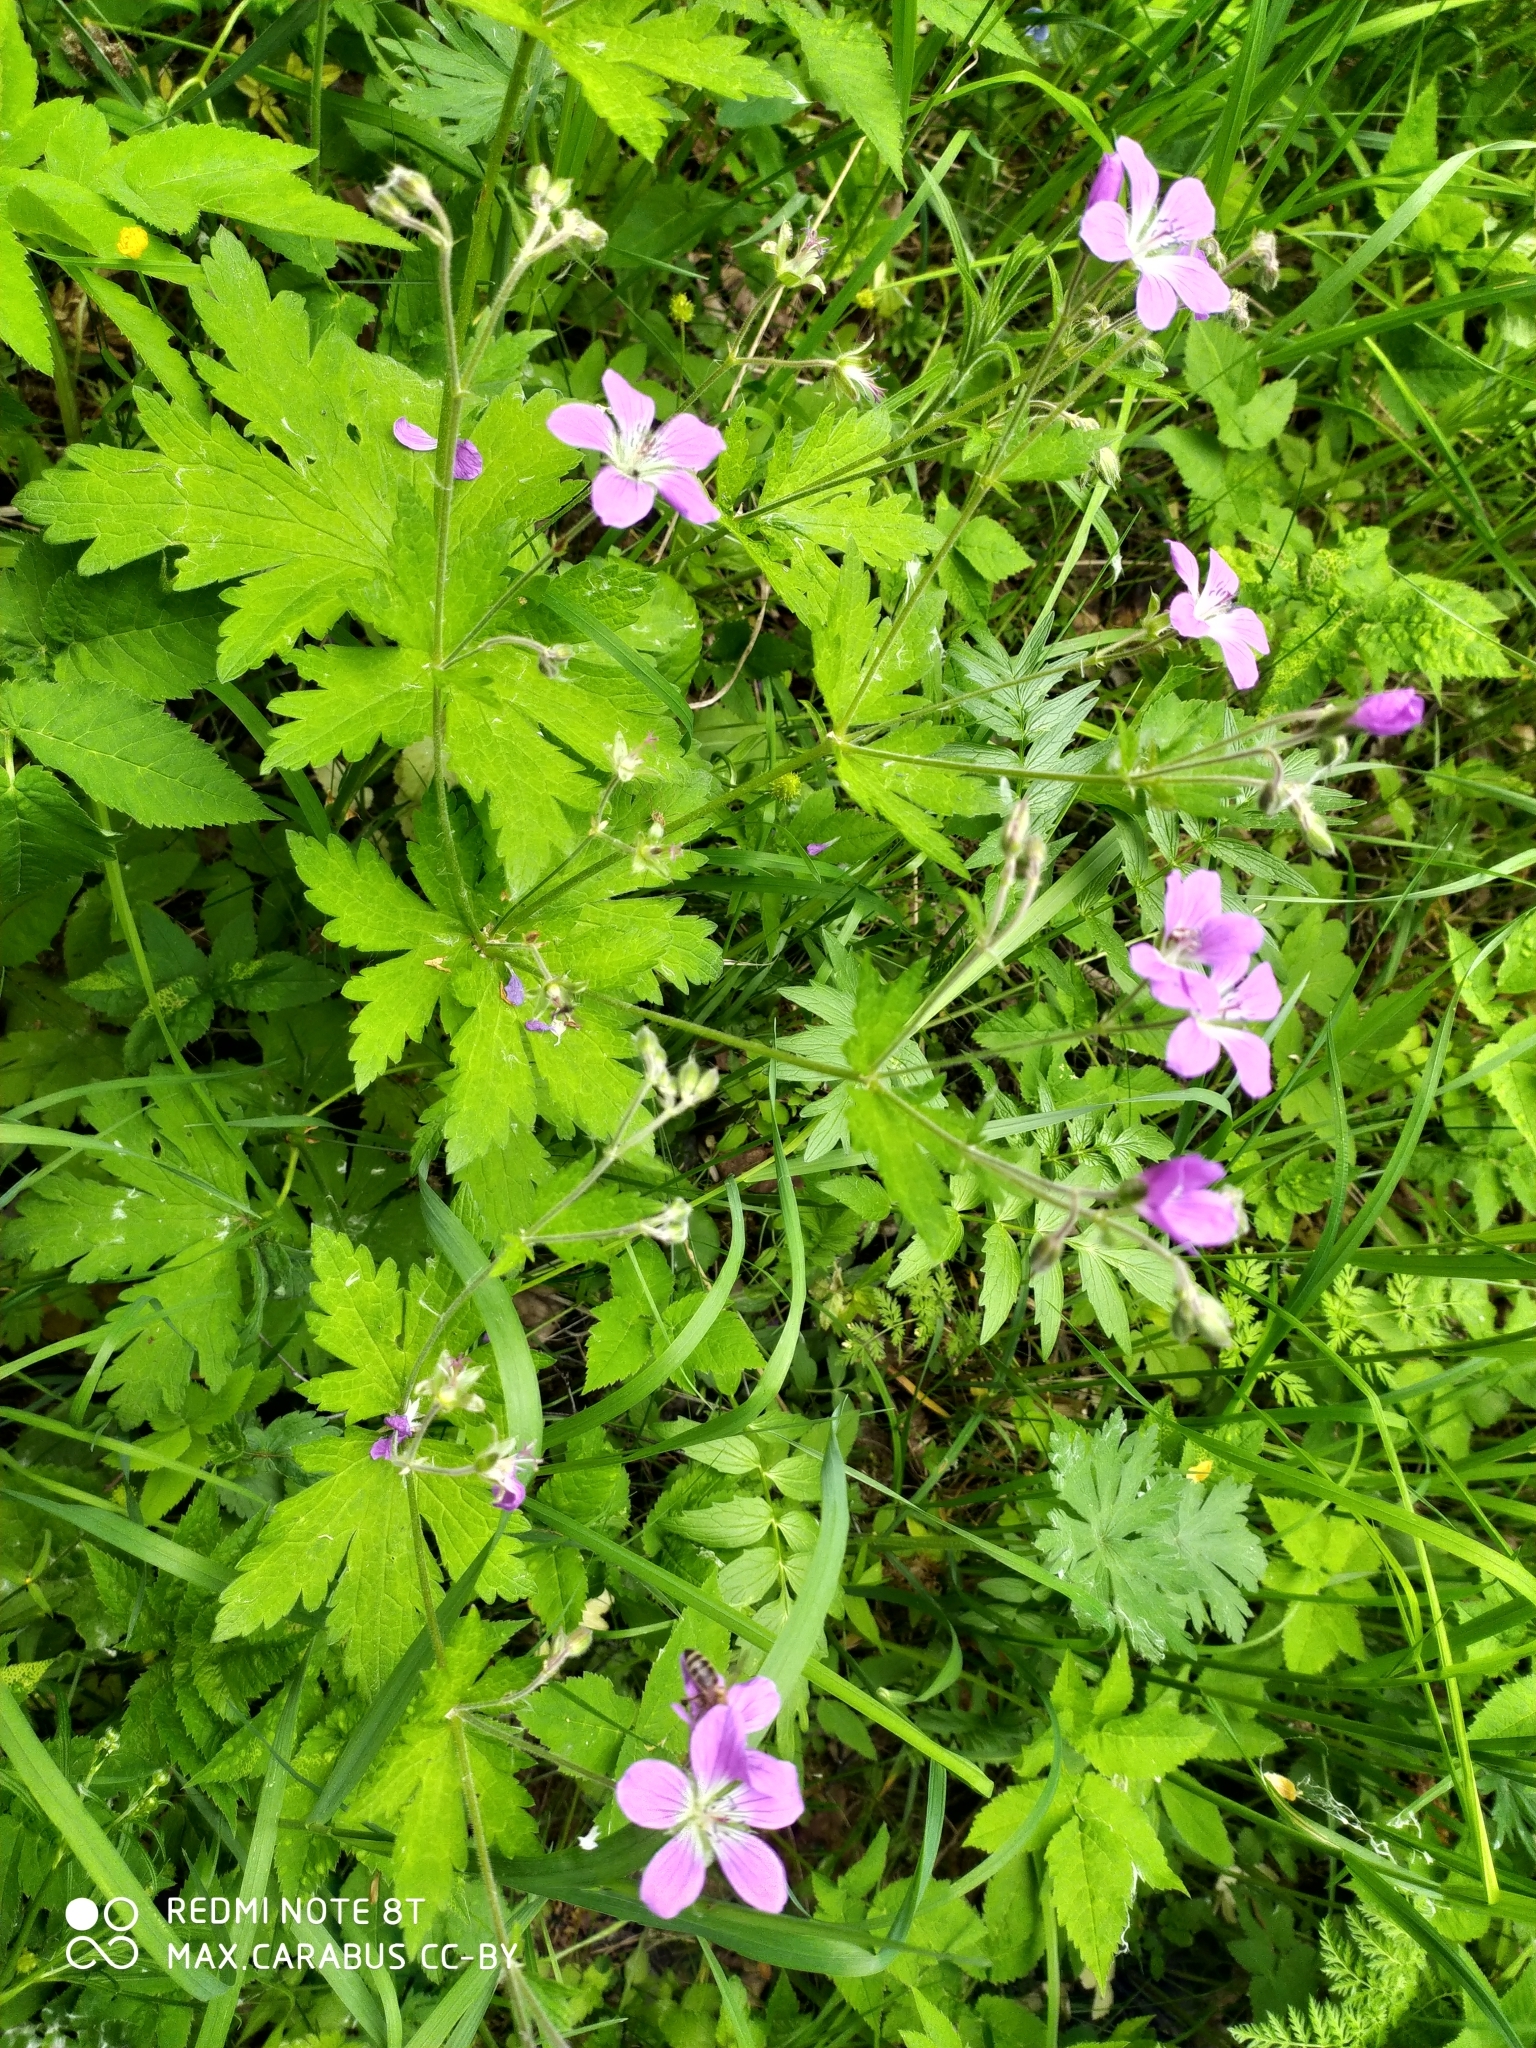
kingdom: Plantae
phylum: Tracheophyta
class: Magnoliopsida
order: Geraniales
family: Geraniaceae
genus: Geranium
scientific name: Geranium sylvaticum
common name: Wood crane's-bill
